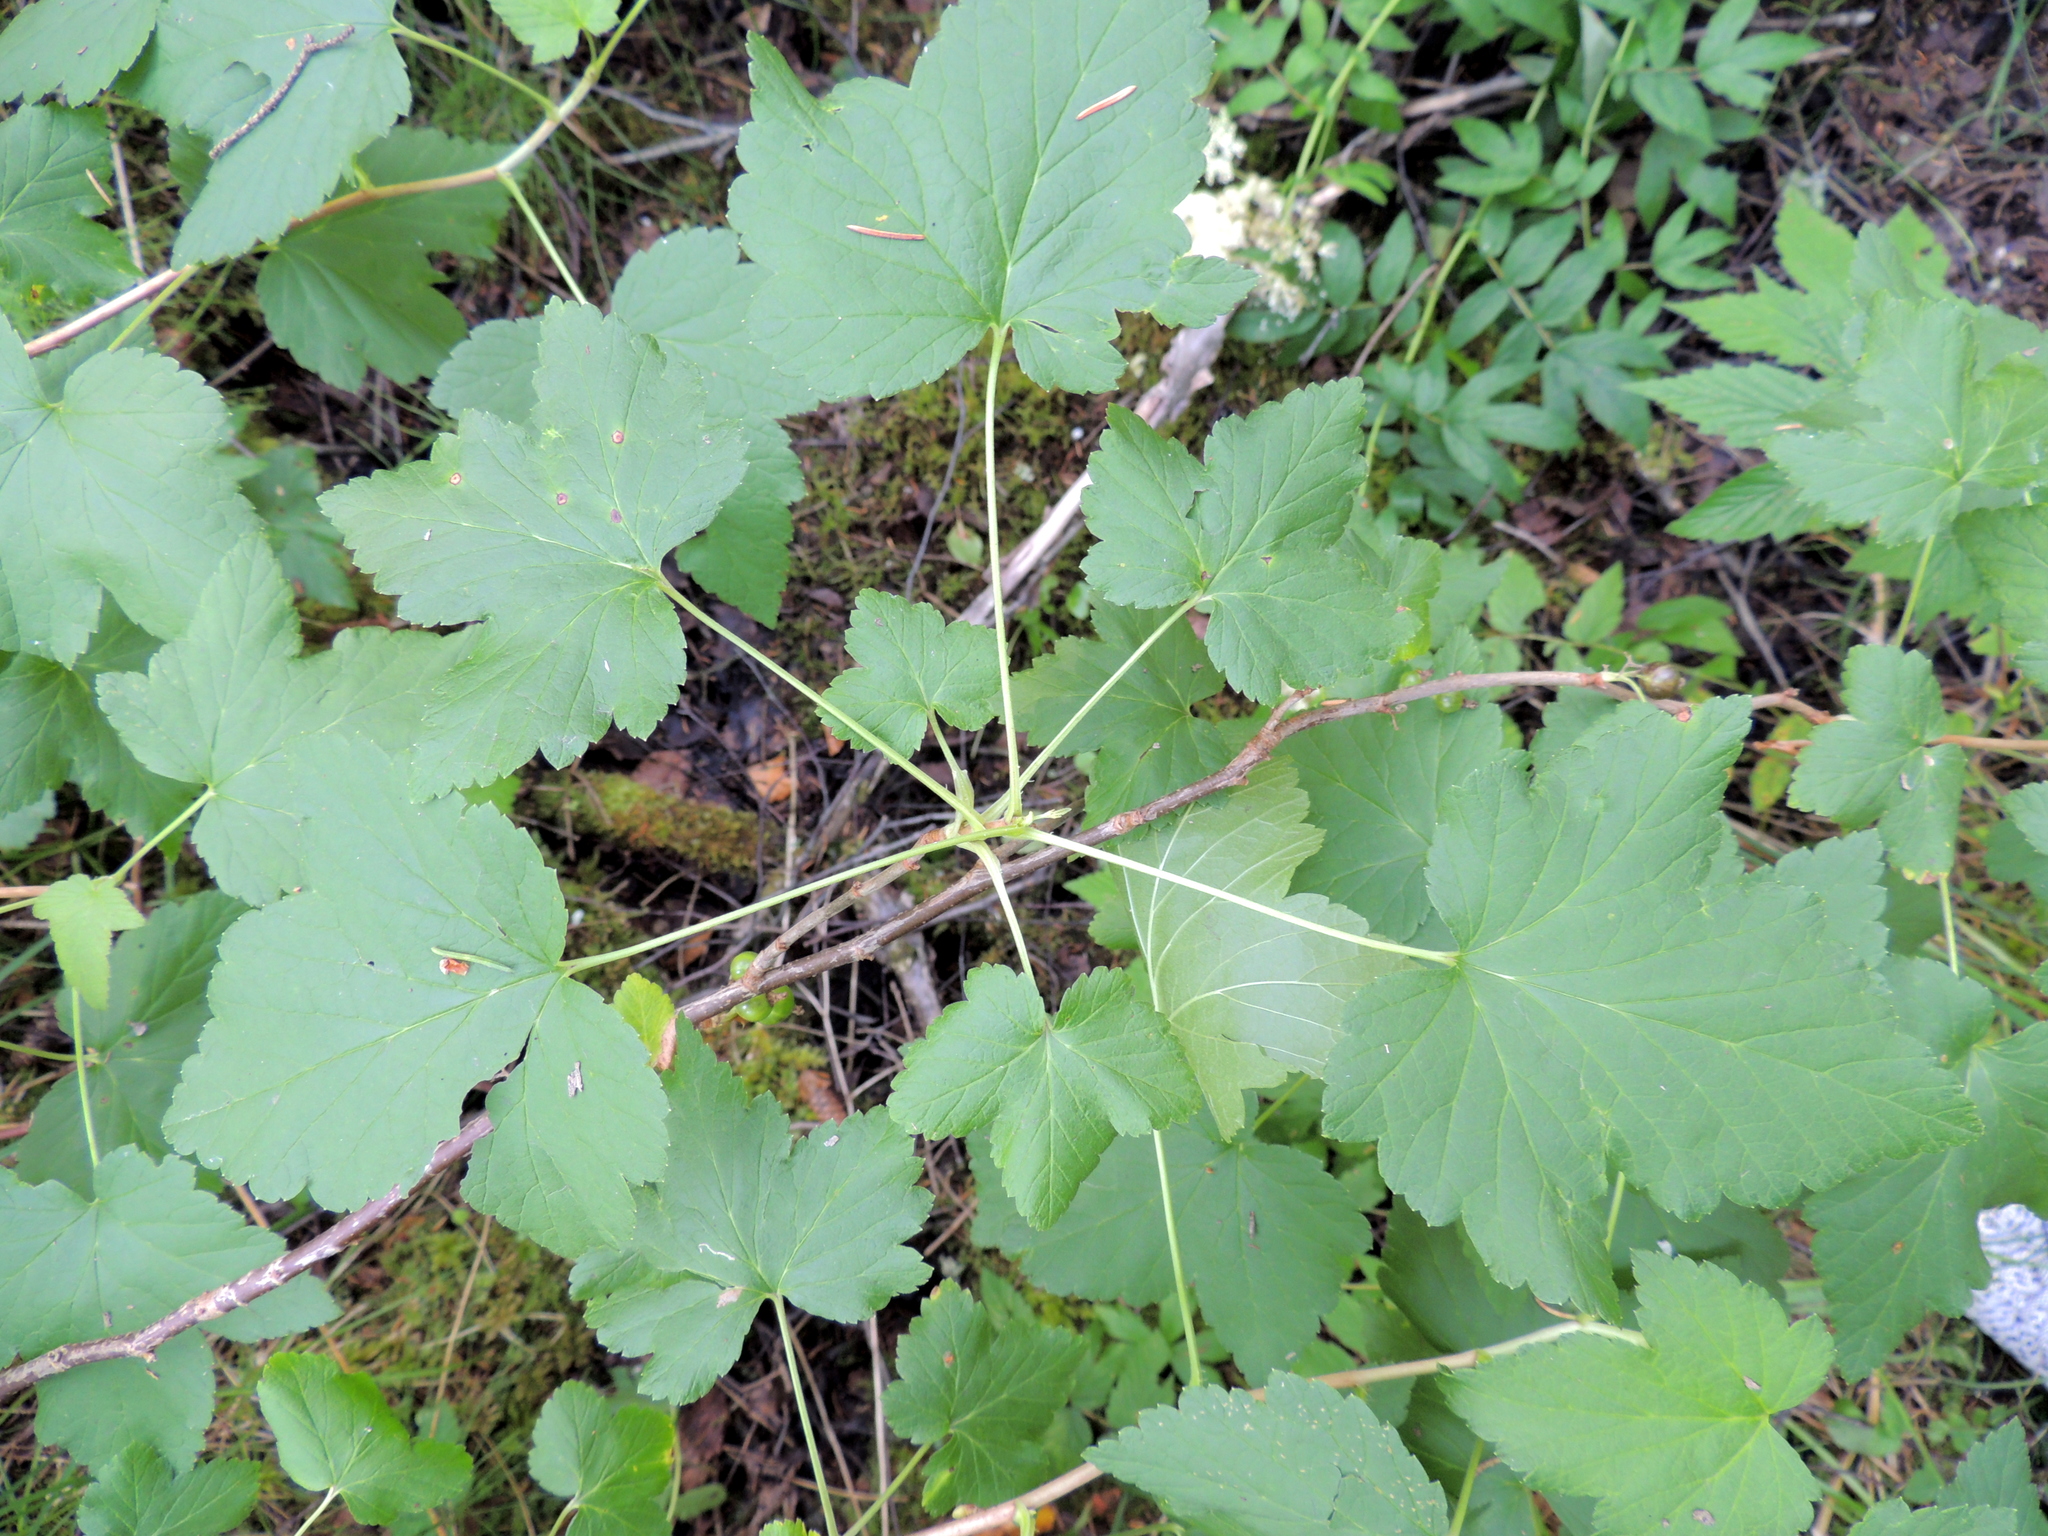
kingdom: Plantae
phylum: Tracheophyta
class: Magnoliopsida
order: Saxifragales
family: Grossulariaceae
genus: Ribes
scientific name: Ribes nigrum
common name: Black currant
